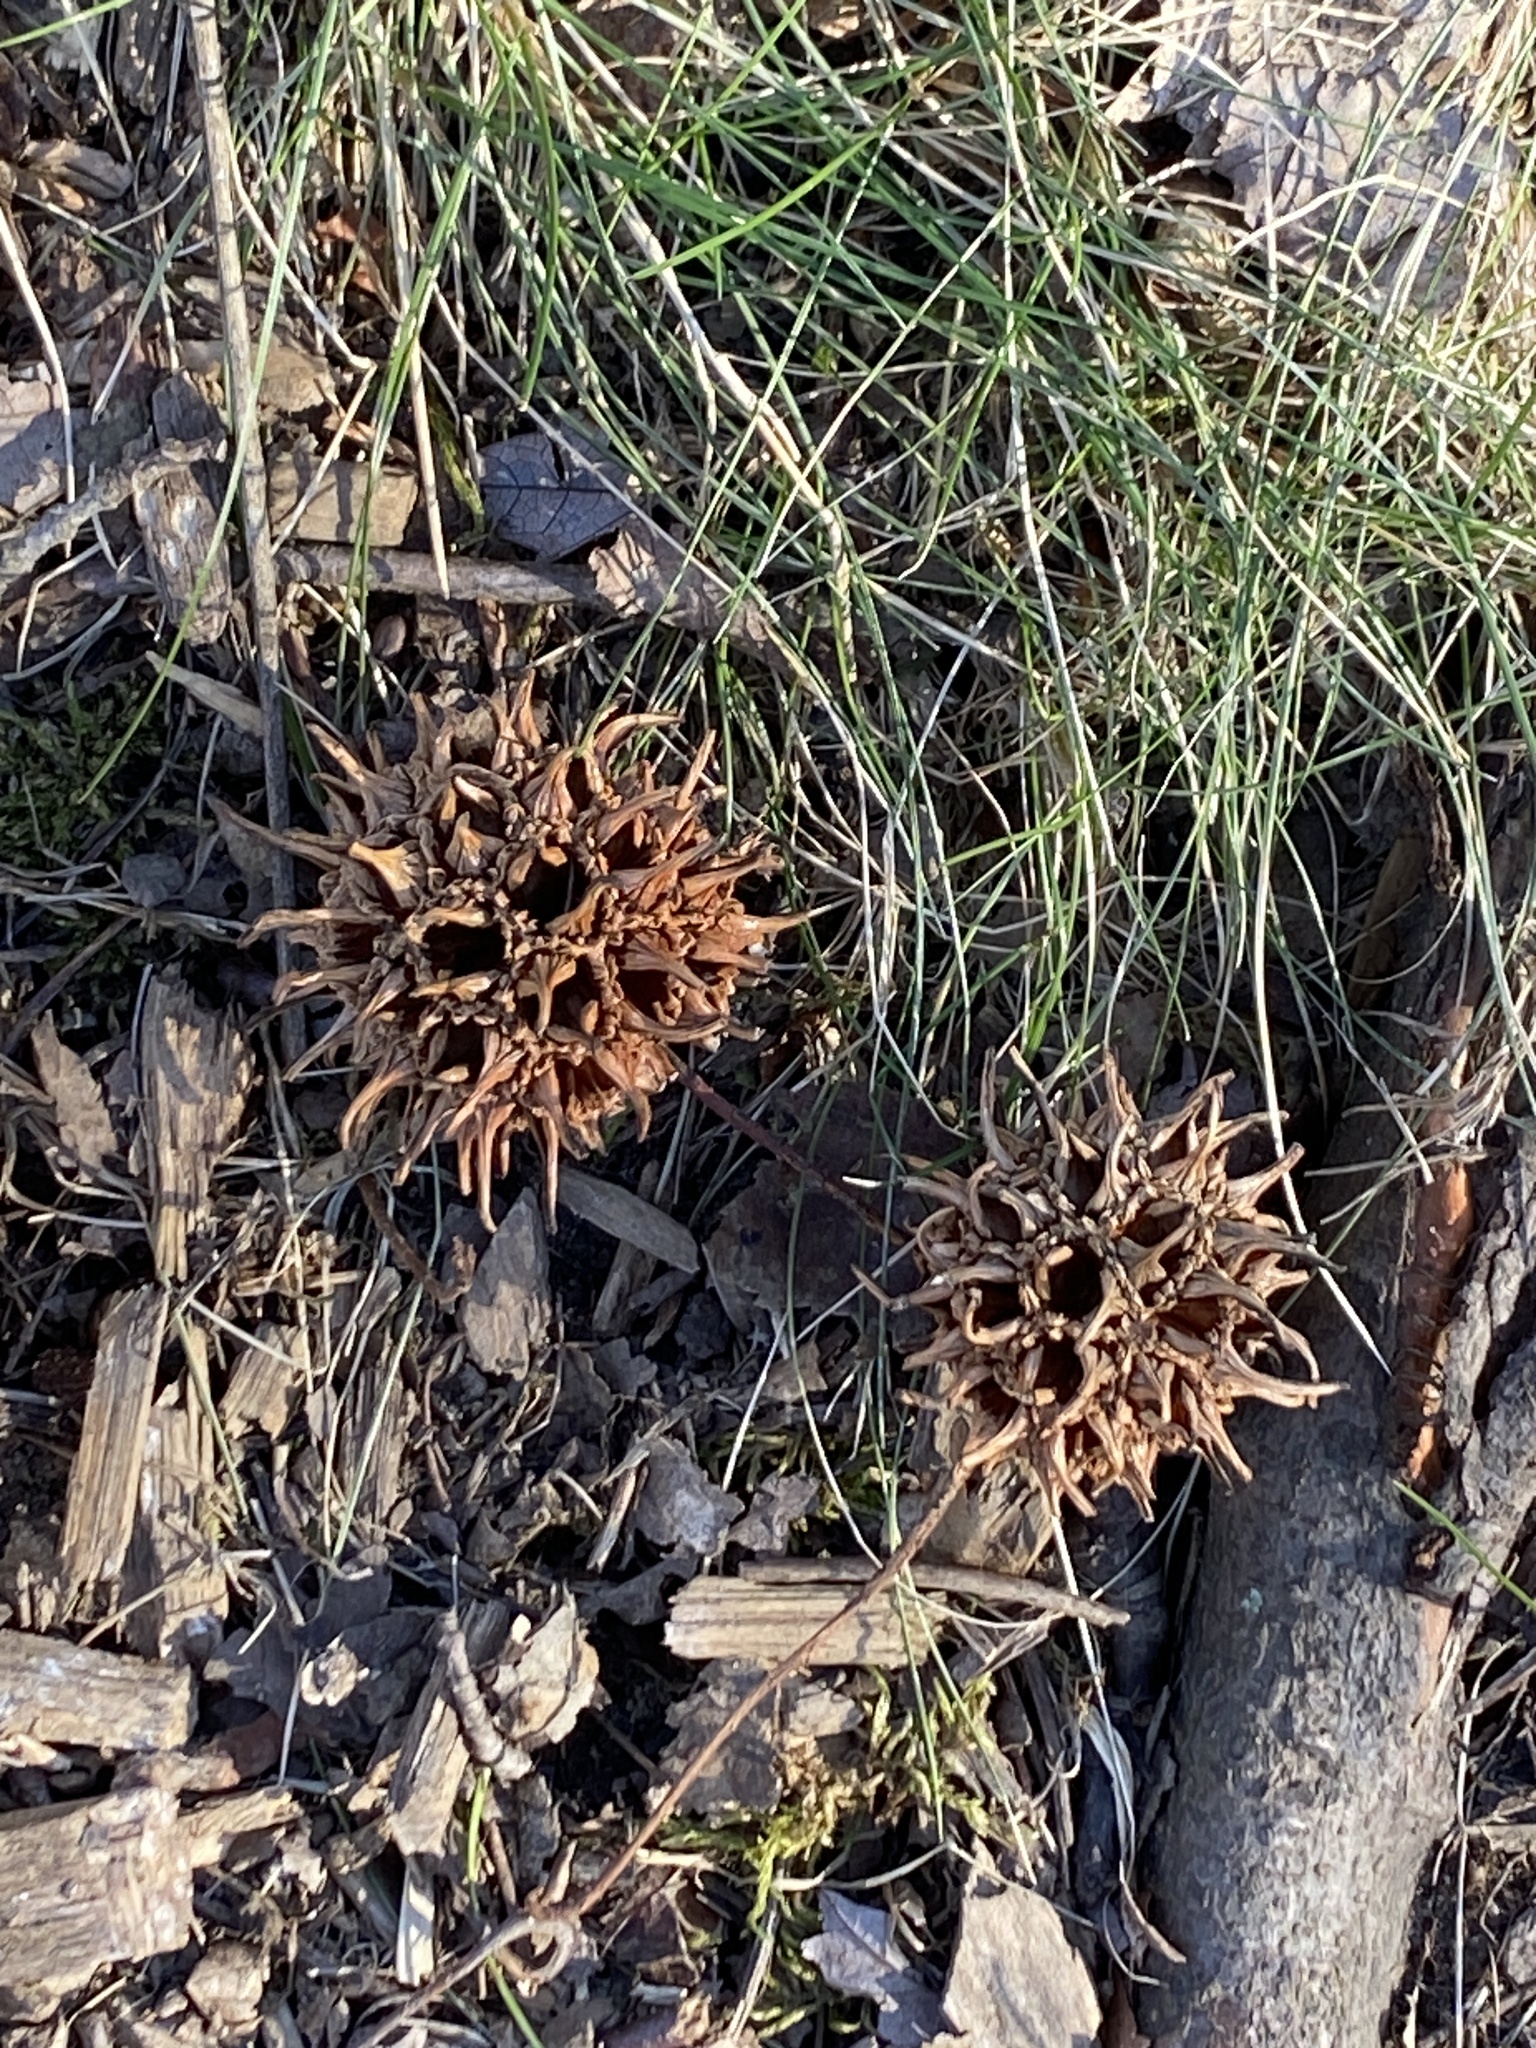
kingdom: Plantae
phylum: Tracheophyta
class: Magnoliopsida
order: Saxifragales
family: Altingiaceae
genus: Liquidambar
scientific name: Liquidambar styraciflua
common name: Sweet gum
